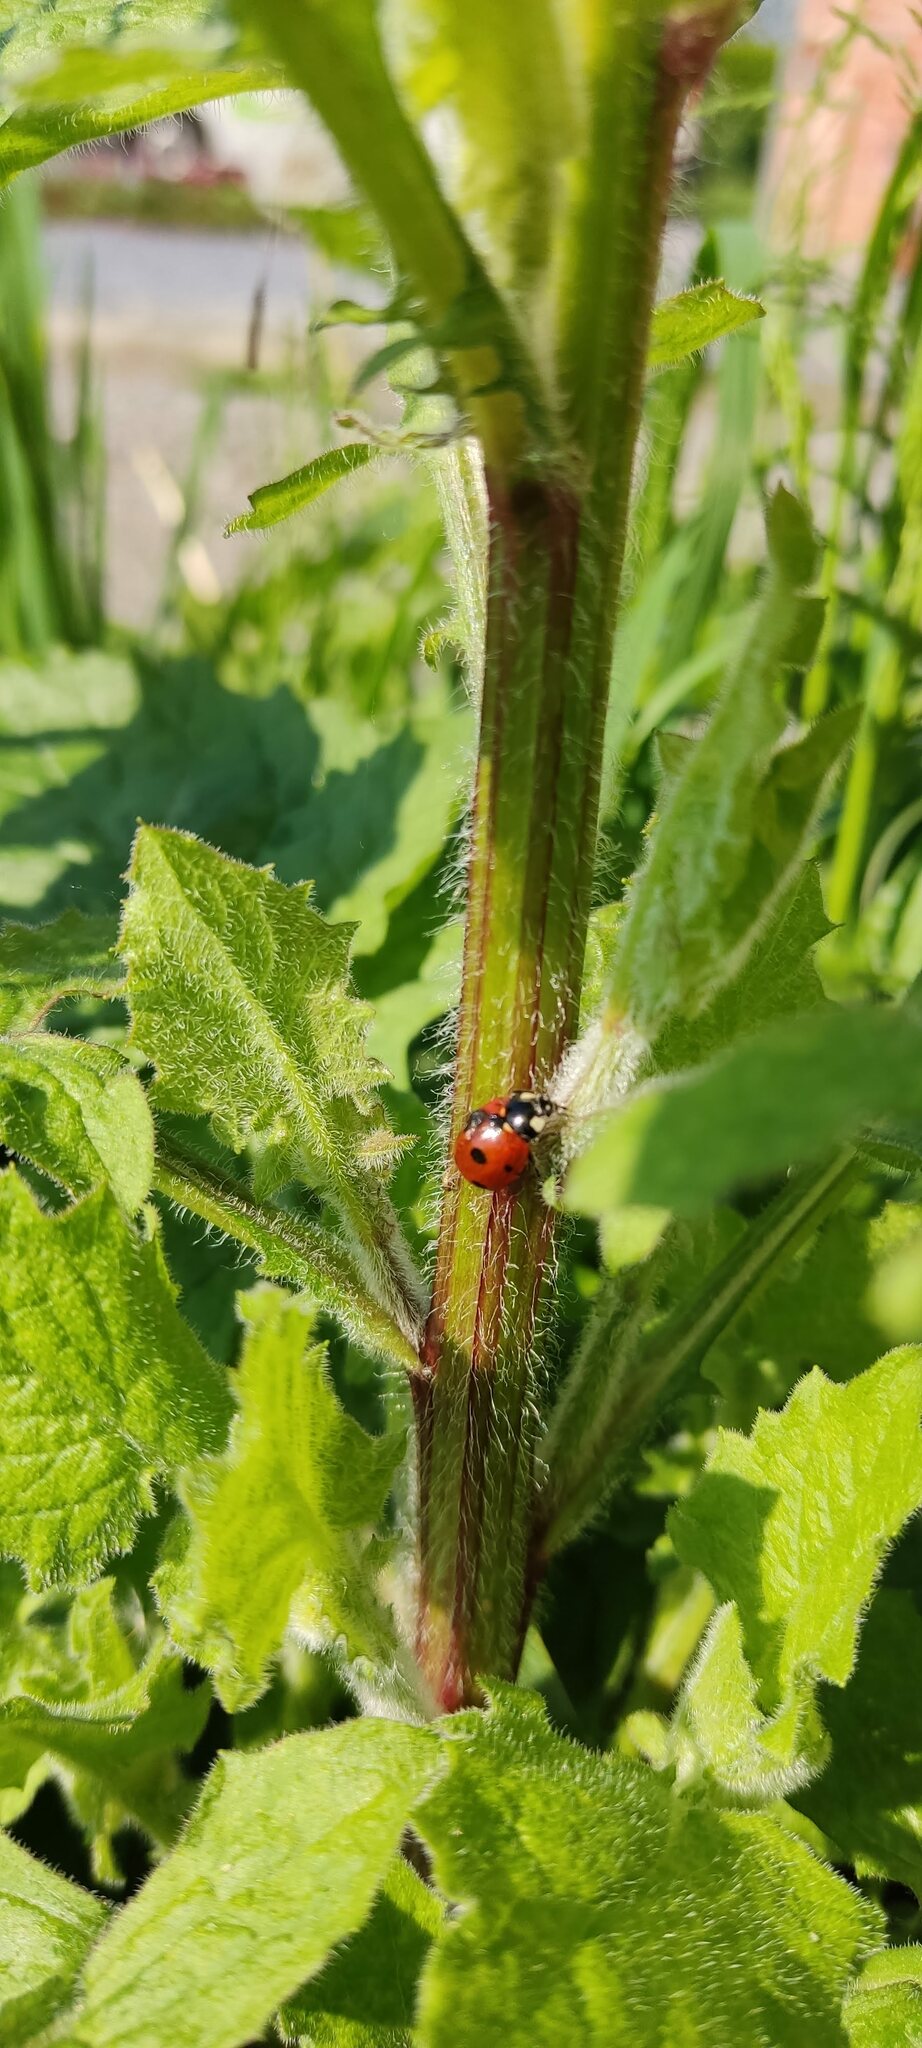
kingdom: Animalia
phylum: Arthropoda
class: Insecta
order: Coleoptera
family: Coccinellidae
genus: Coccinella
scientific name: Coccinella septempunctata
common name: Sevenspotted lady beetle
